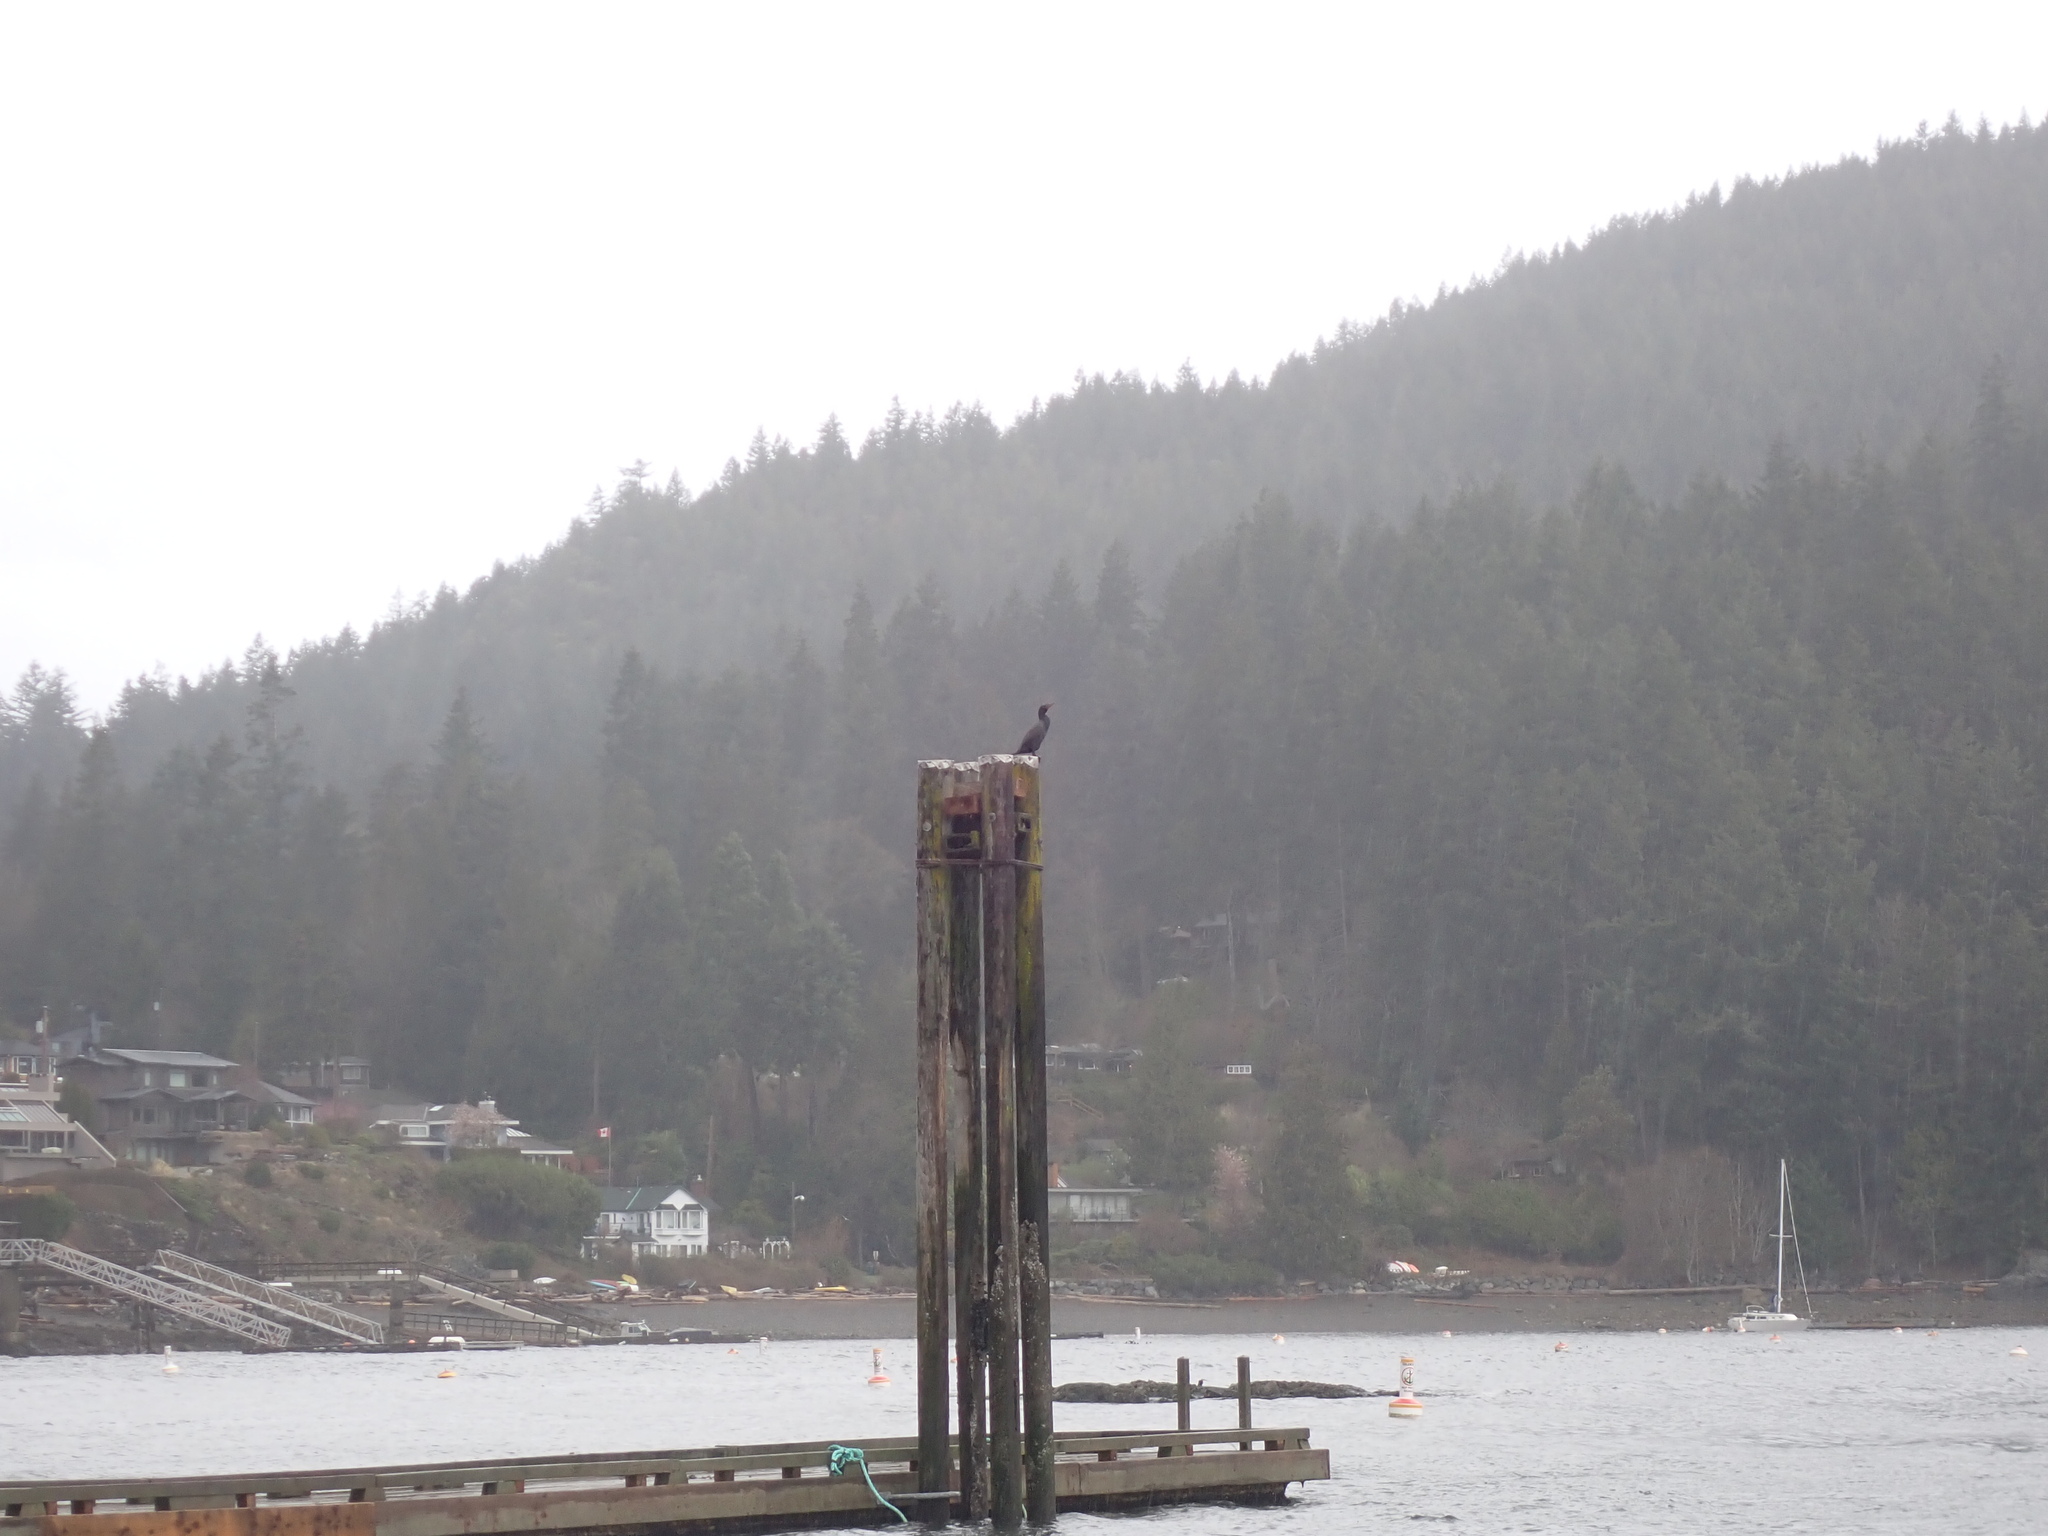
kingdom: Animalia
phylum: Chordata
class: Aves
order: Suliformes
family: Phalacrocoracidae
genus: Phalacrocorax
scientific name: Phalacrocorax auritus
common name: Double-crested cormorant
